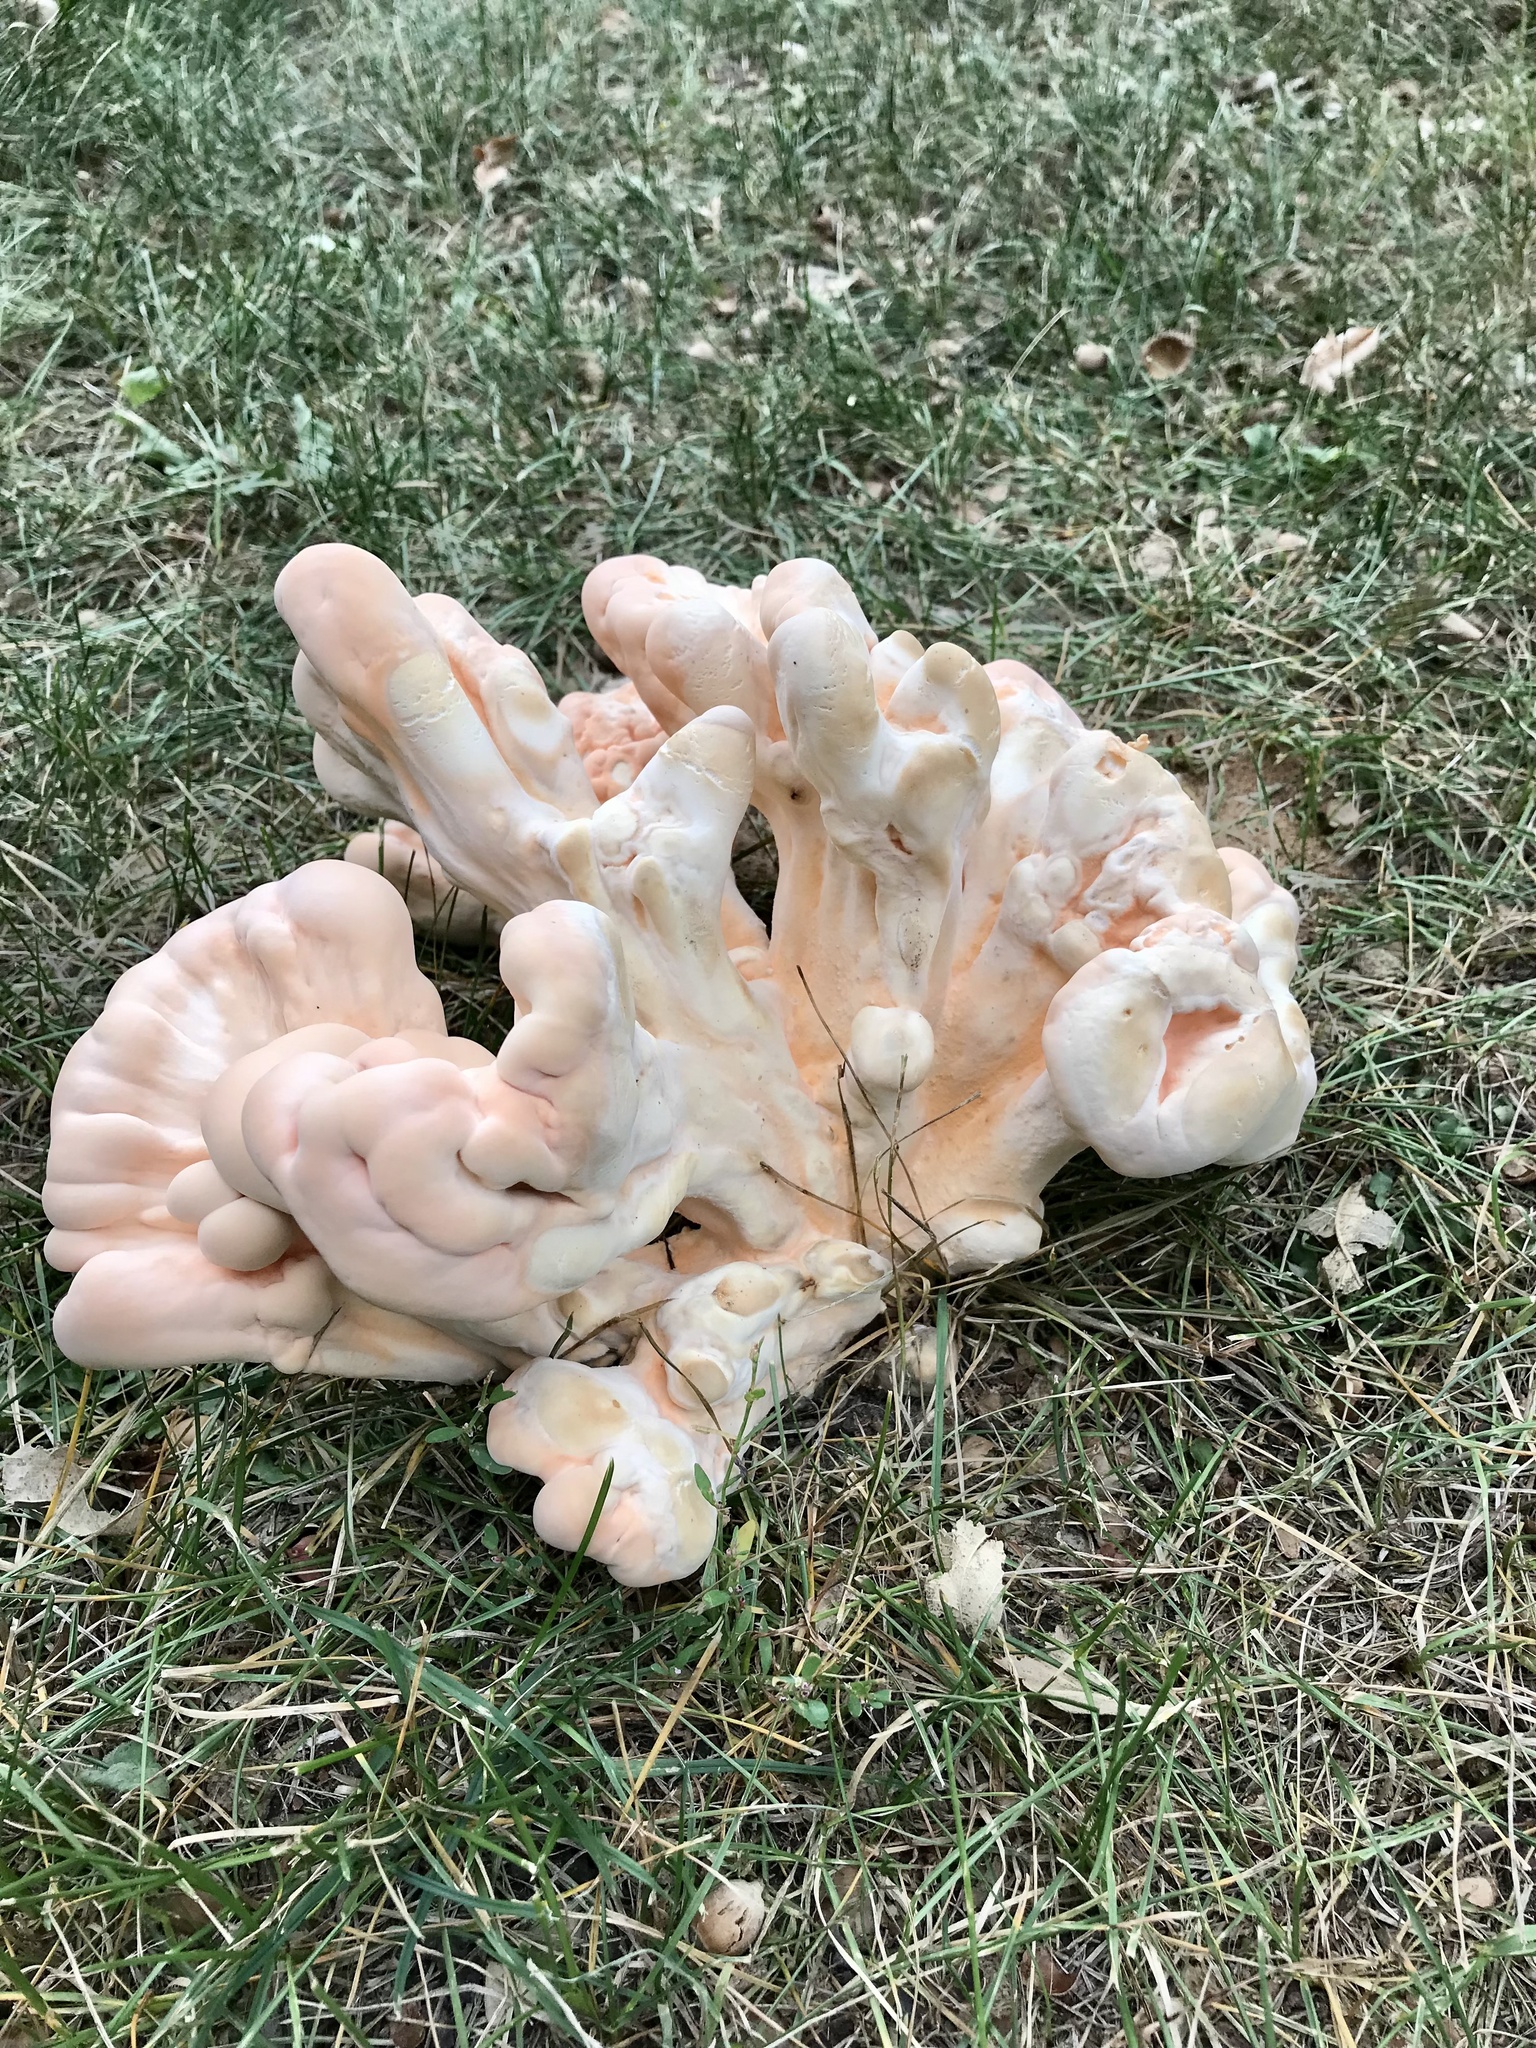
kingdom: Fungi
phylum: Basidiomycota
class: Agaricomycetes
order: Polyporales
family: Laetiporaceae
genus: Laetiporus
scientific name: Laetiporus sulphureus
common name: Chicken of the woods
